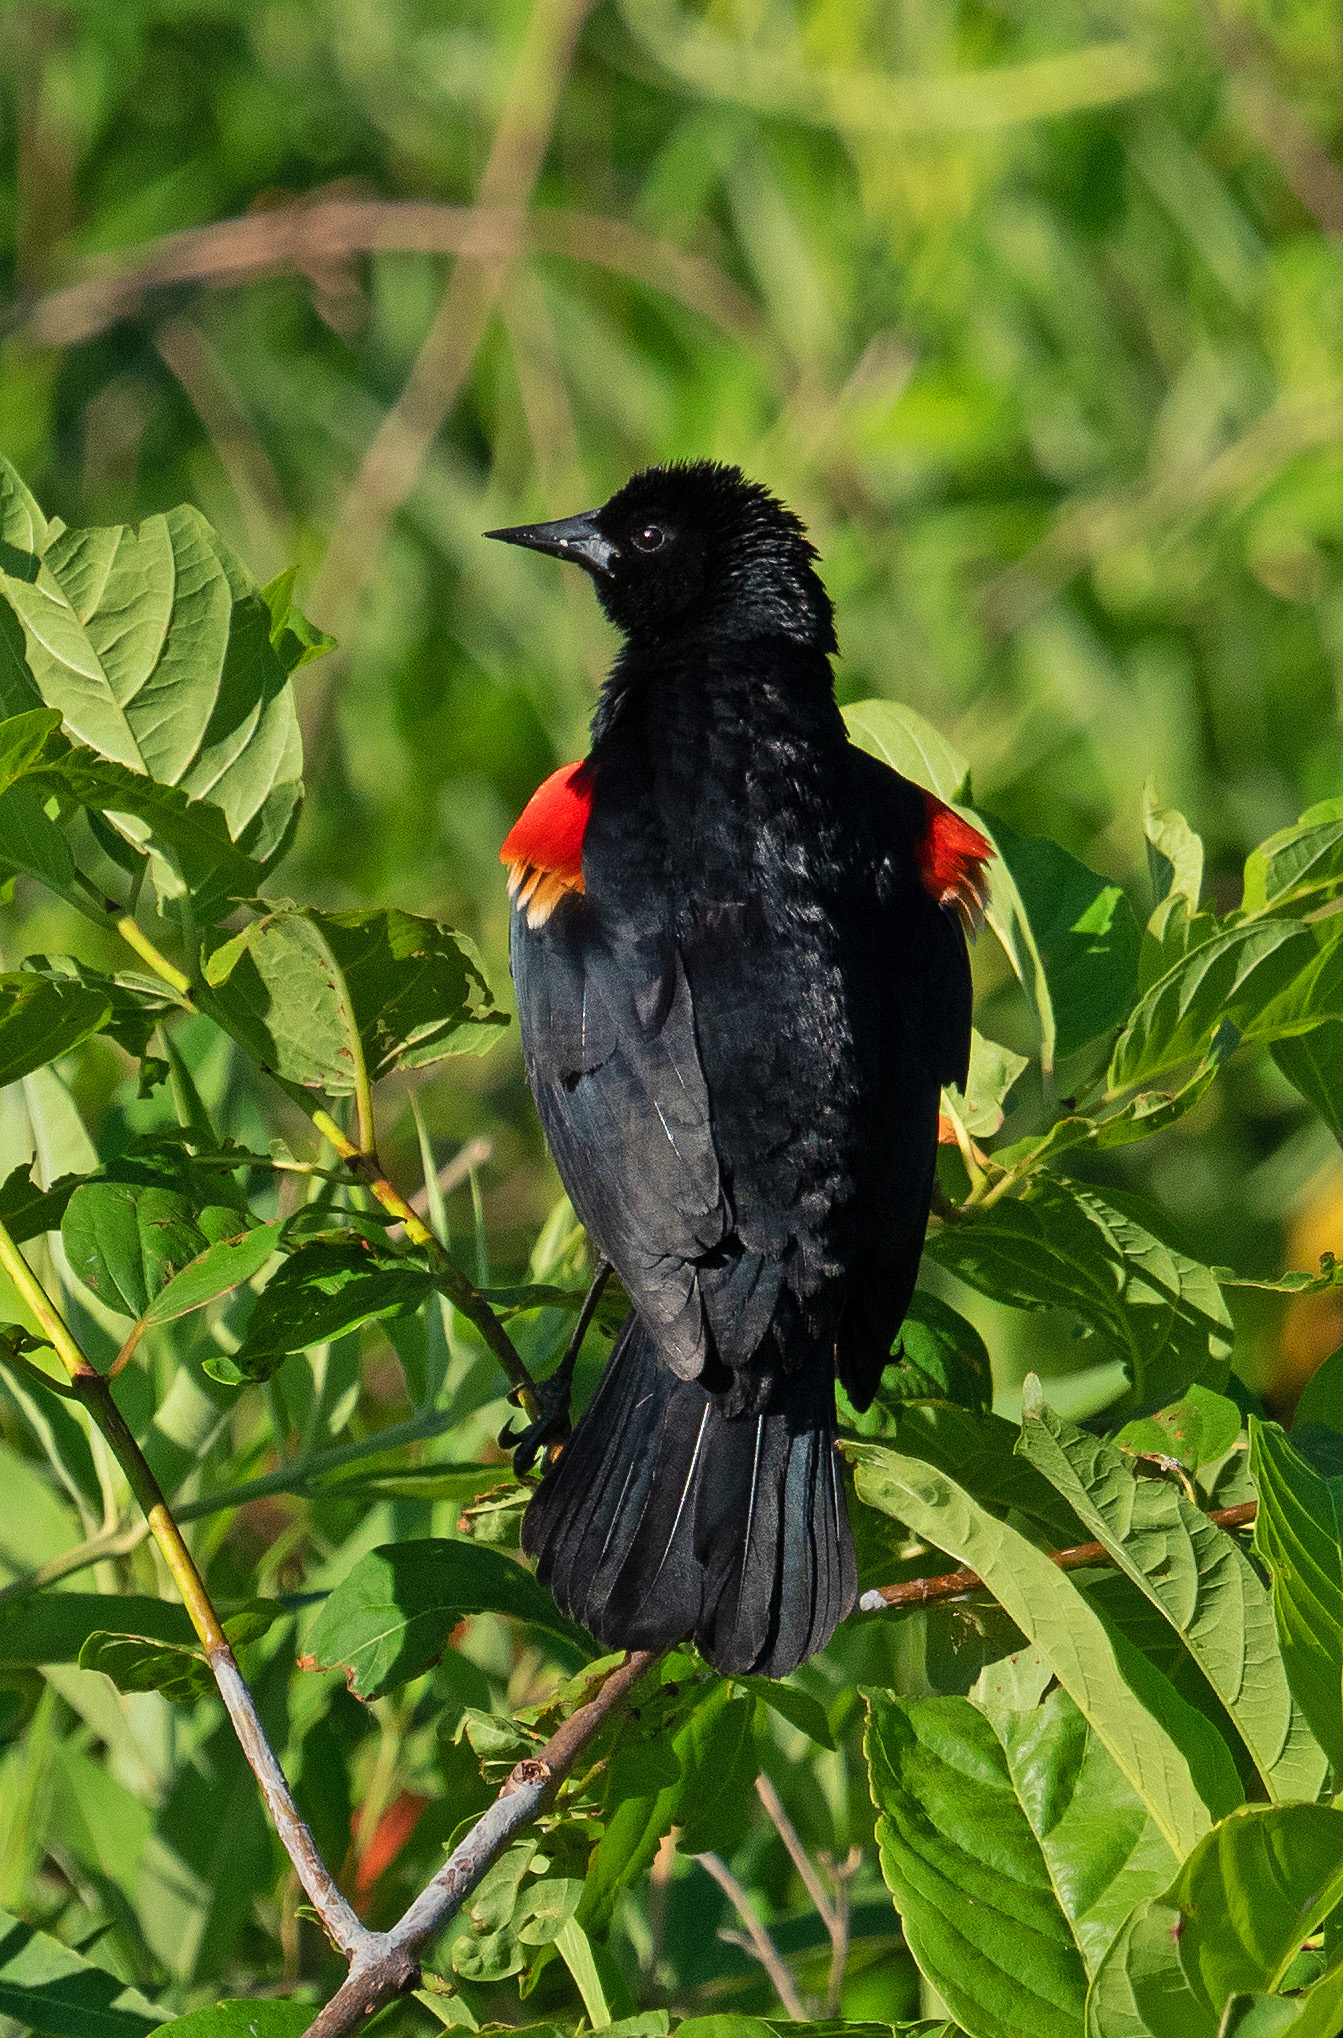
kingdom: Animalia
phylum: Chordata
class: Aves
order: Passeriformes
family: Icteridae
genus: Agelaius
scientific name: Agelaius phoeniceus
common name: Red-winged blackbird
